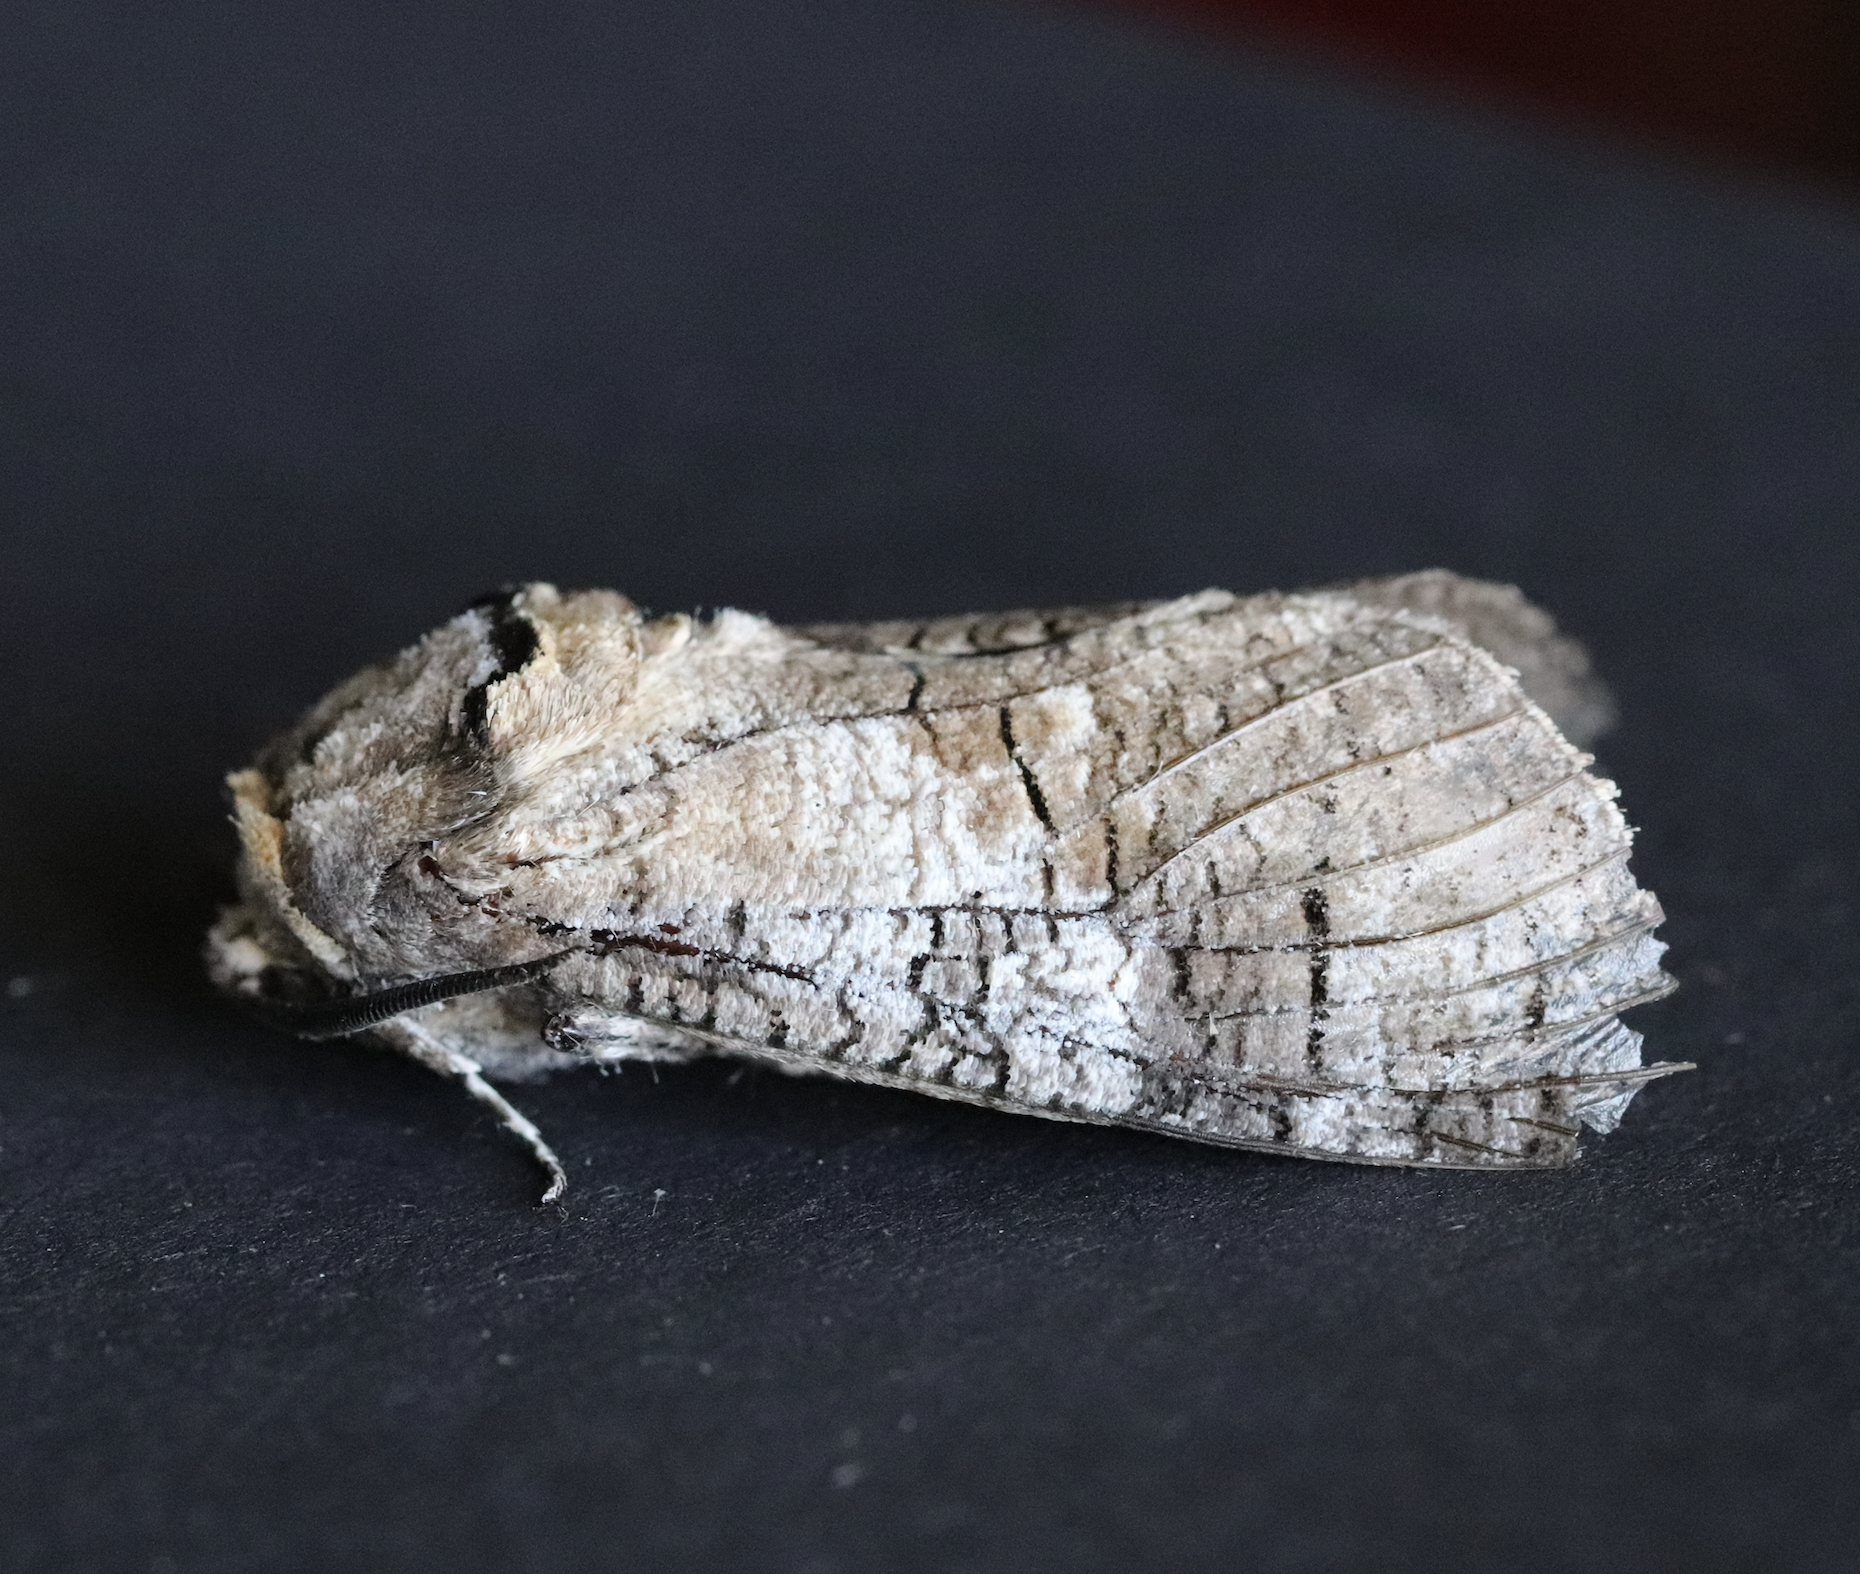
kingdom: Animalia
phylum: Arthropoda
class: Insecta
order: Lepidoptera
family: Cossidae
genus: Cossus
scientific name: Cossus cossus
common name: Goat moth
